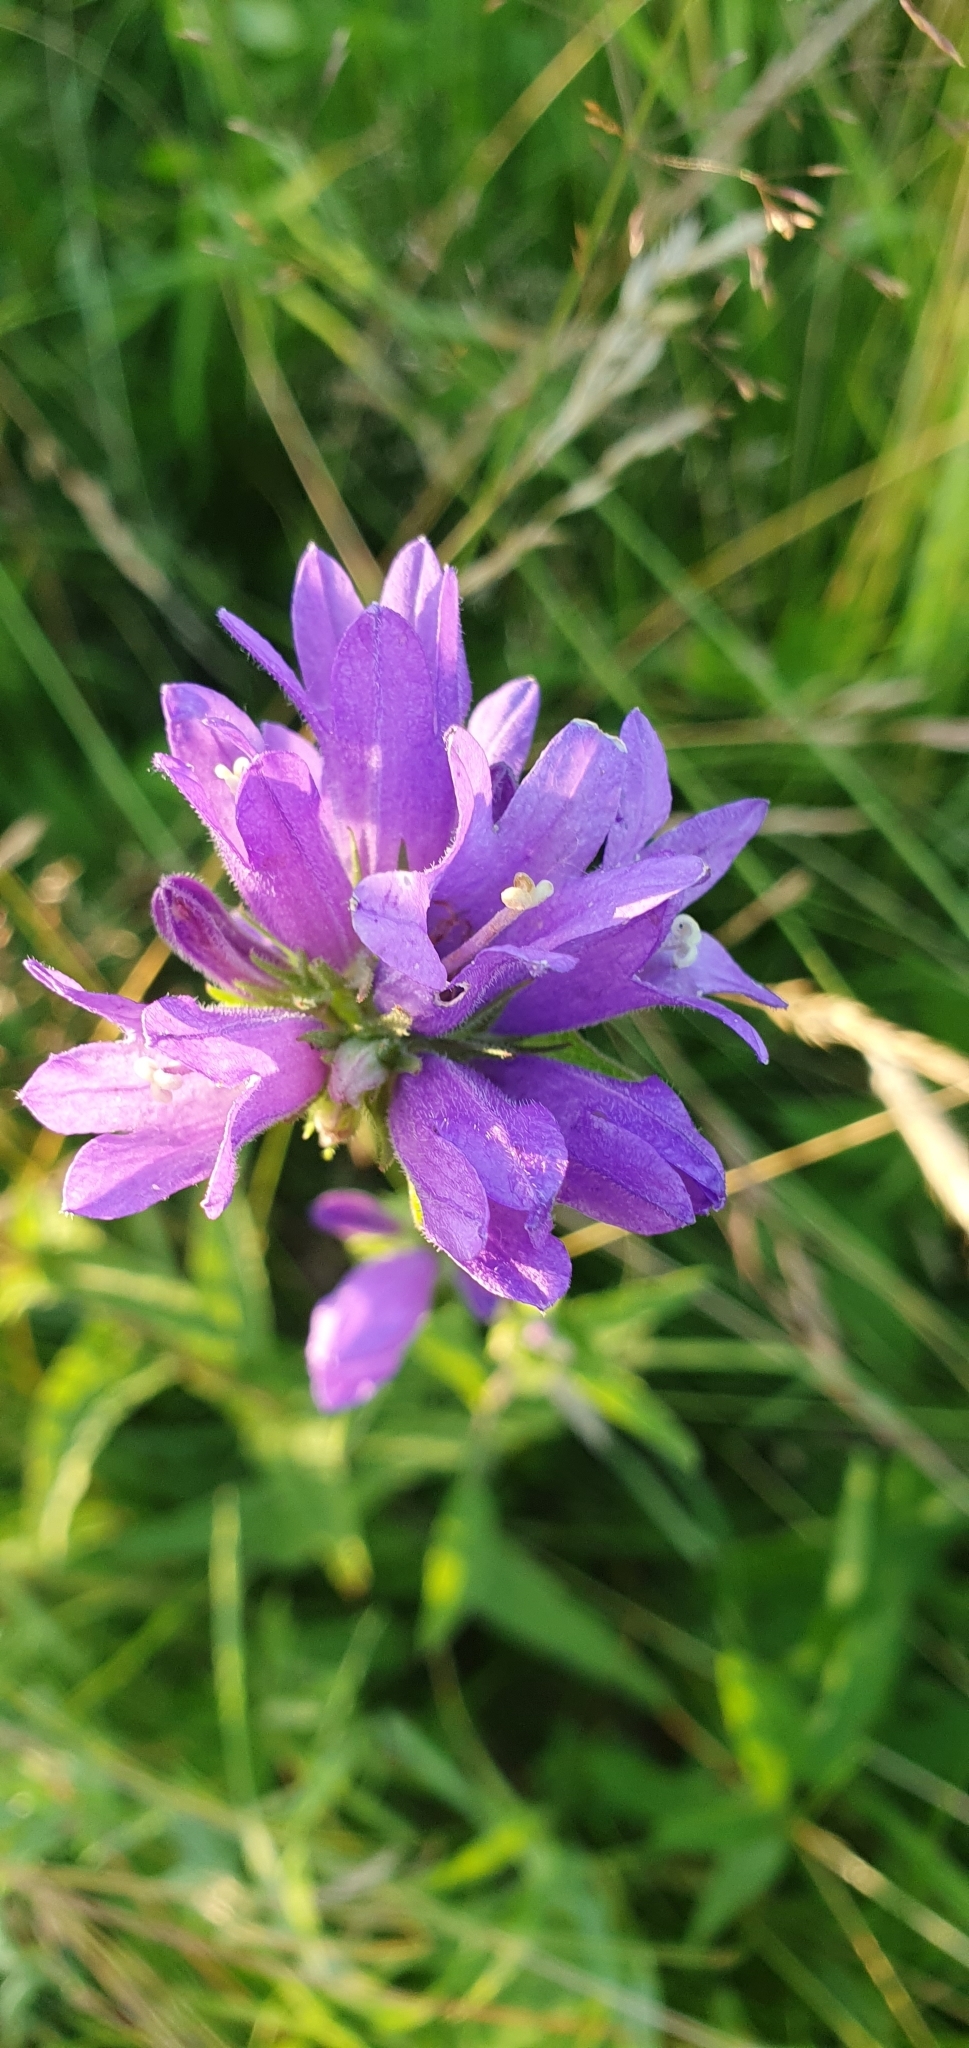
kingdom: Plantae
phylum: Tracheophyta
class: Magnoliopsida
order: Asterales
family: Campanulaceae
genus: Campanula
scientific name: Campanula glomerata
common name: Clustered bellflower
